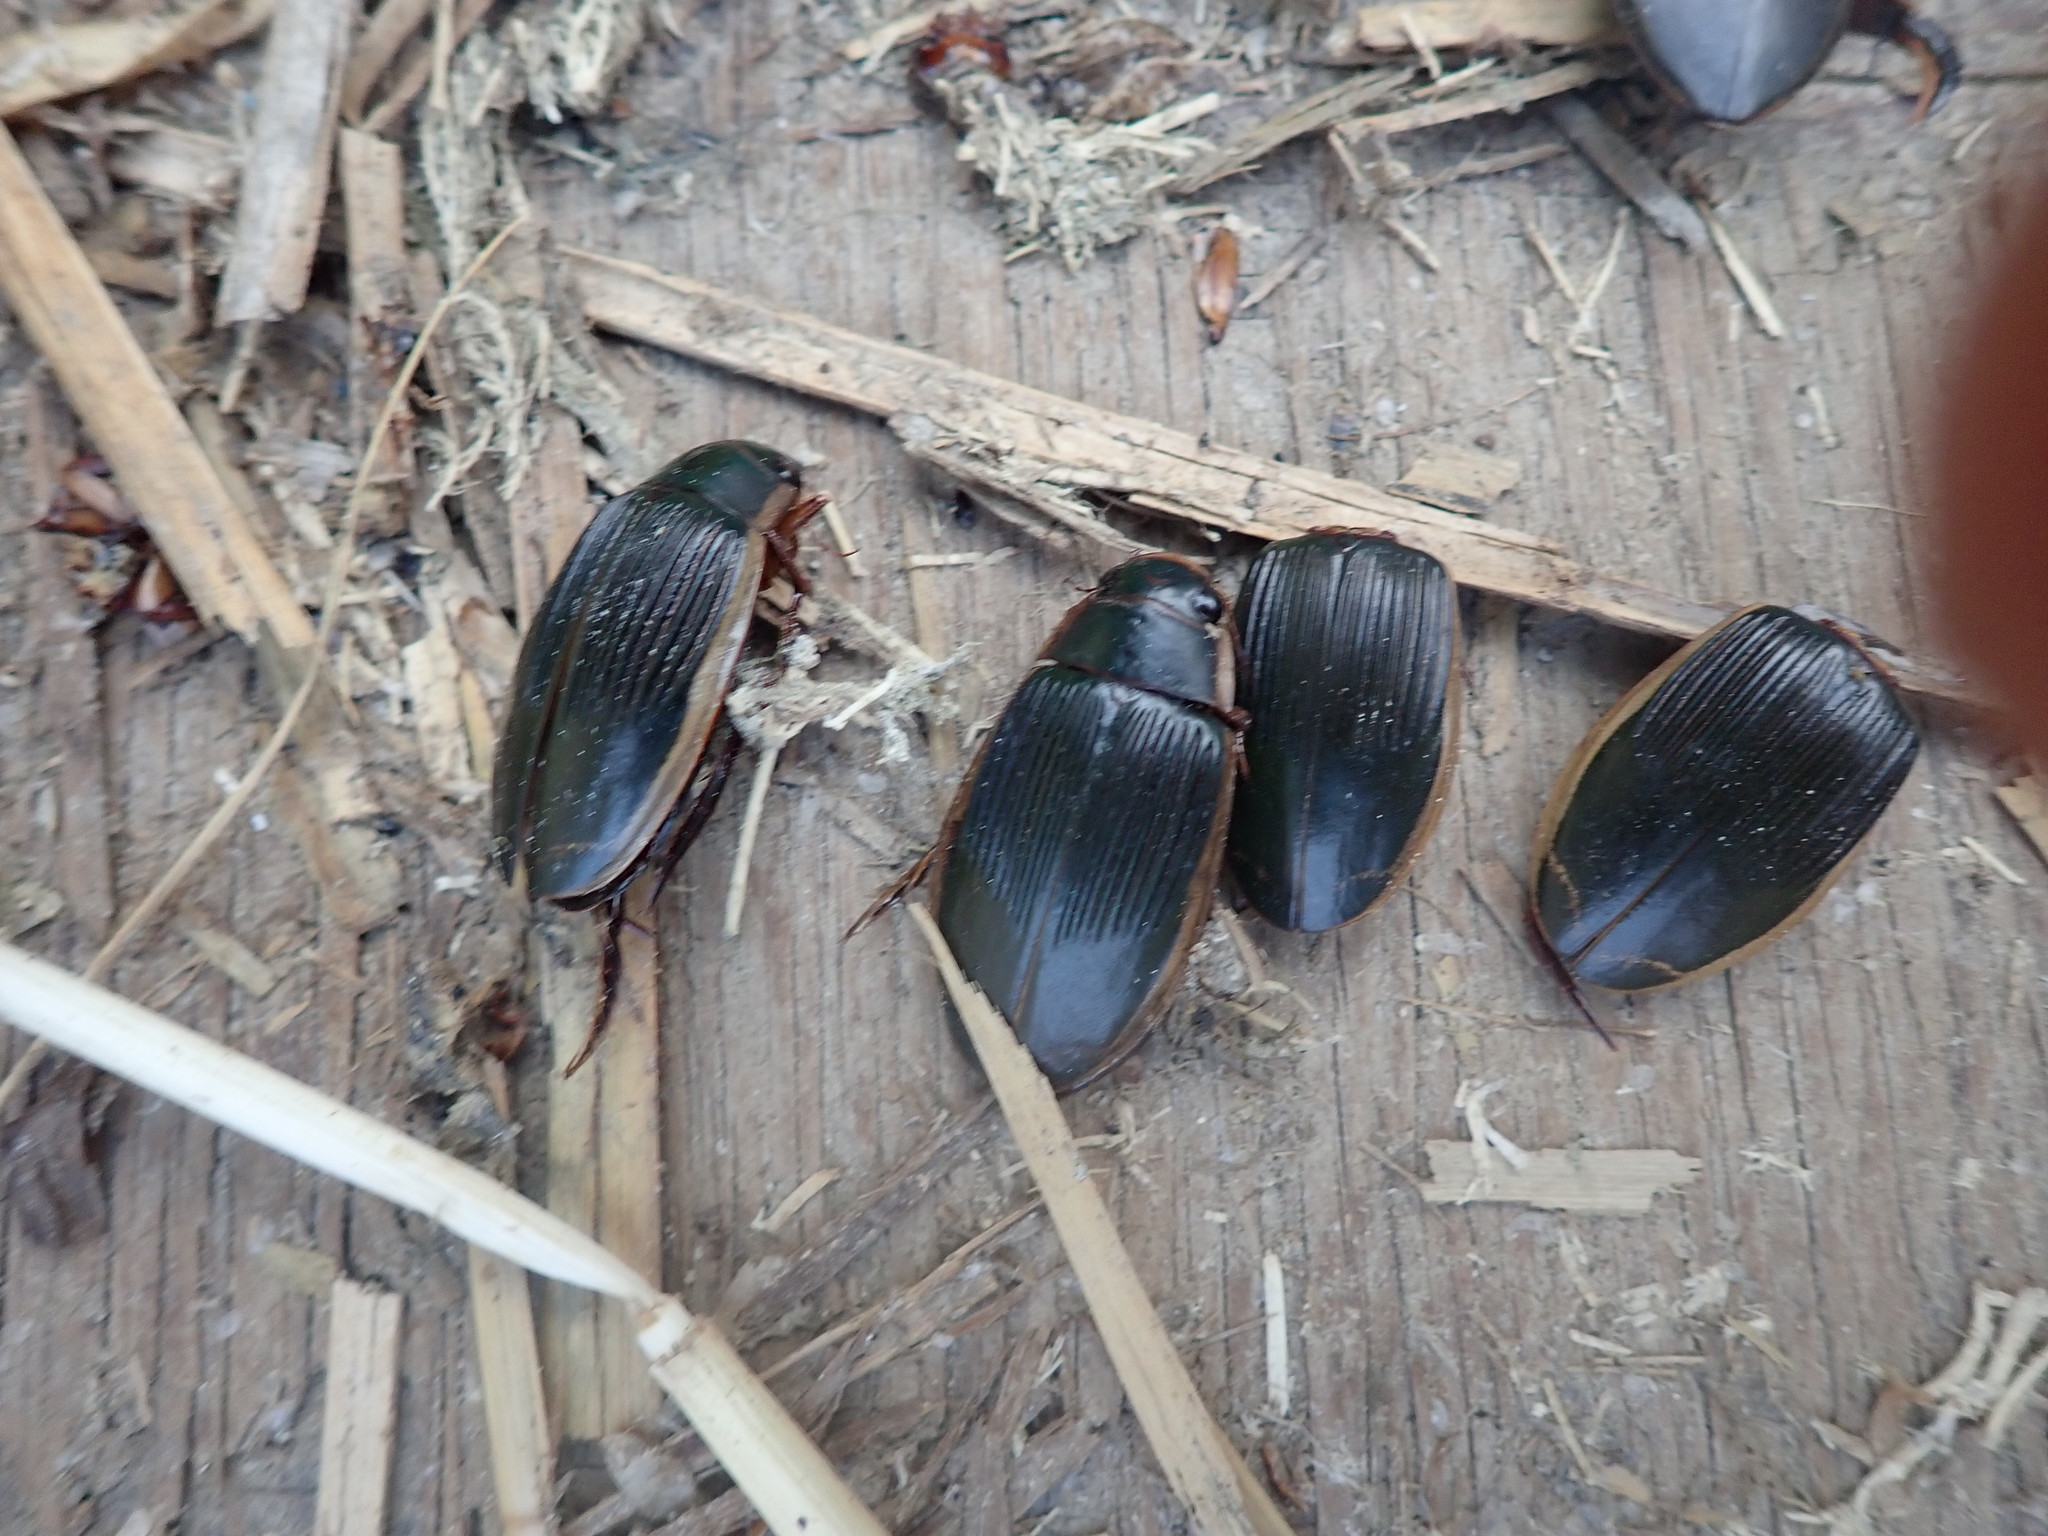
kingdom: Animalia
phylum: Arthropoda
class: Insecta
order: Coleoptera
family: Dytiscidae
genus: Dytiscus
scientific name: Dytiscus dimidiatus
